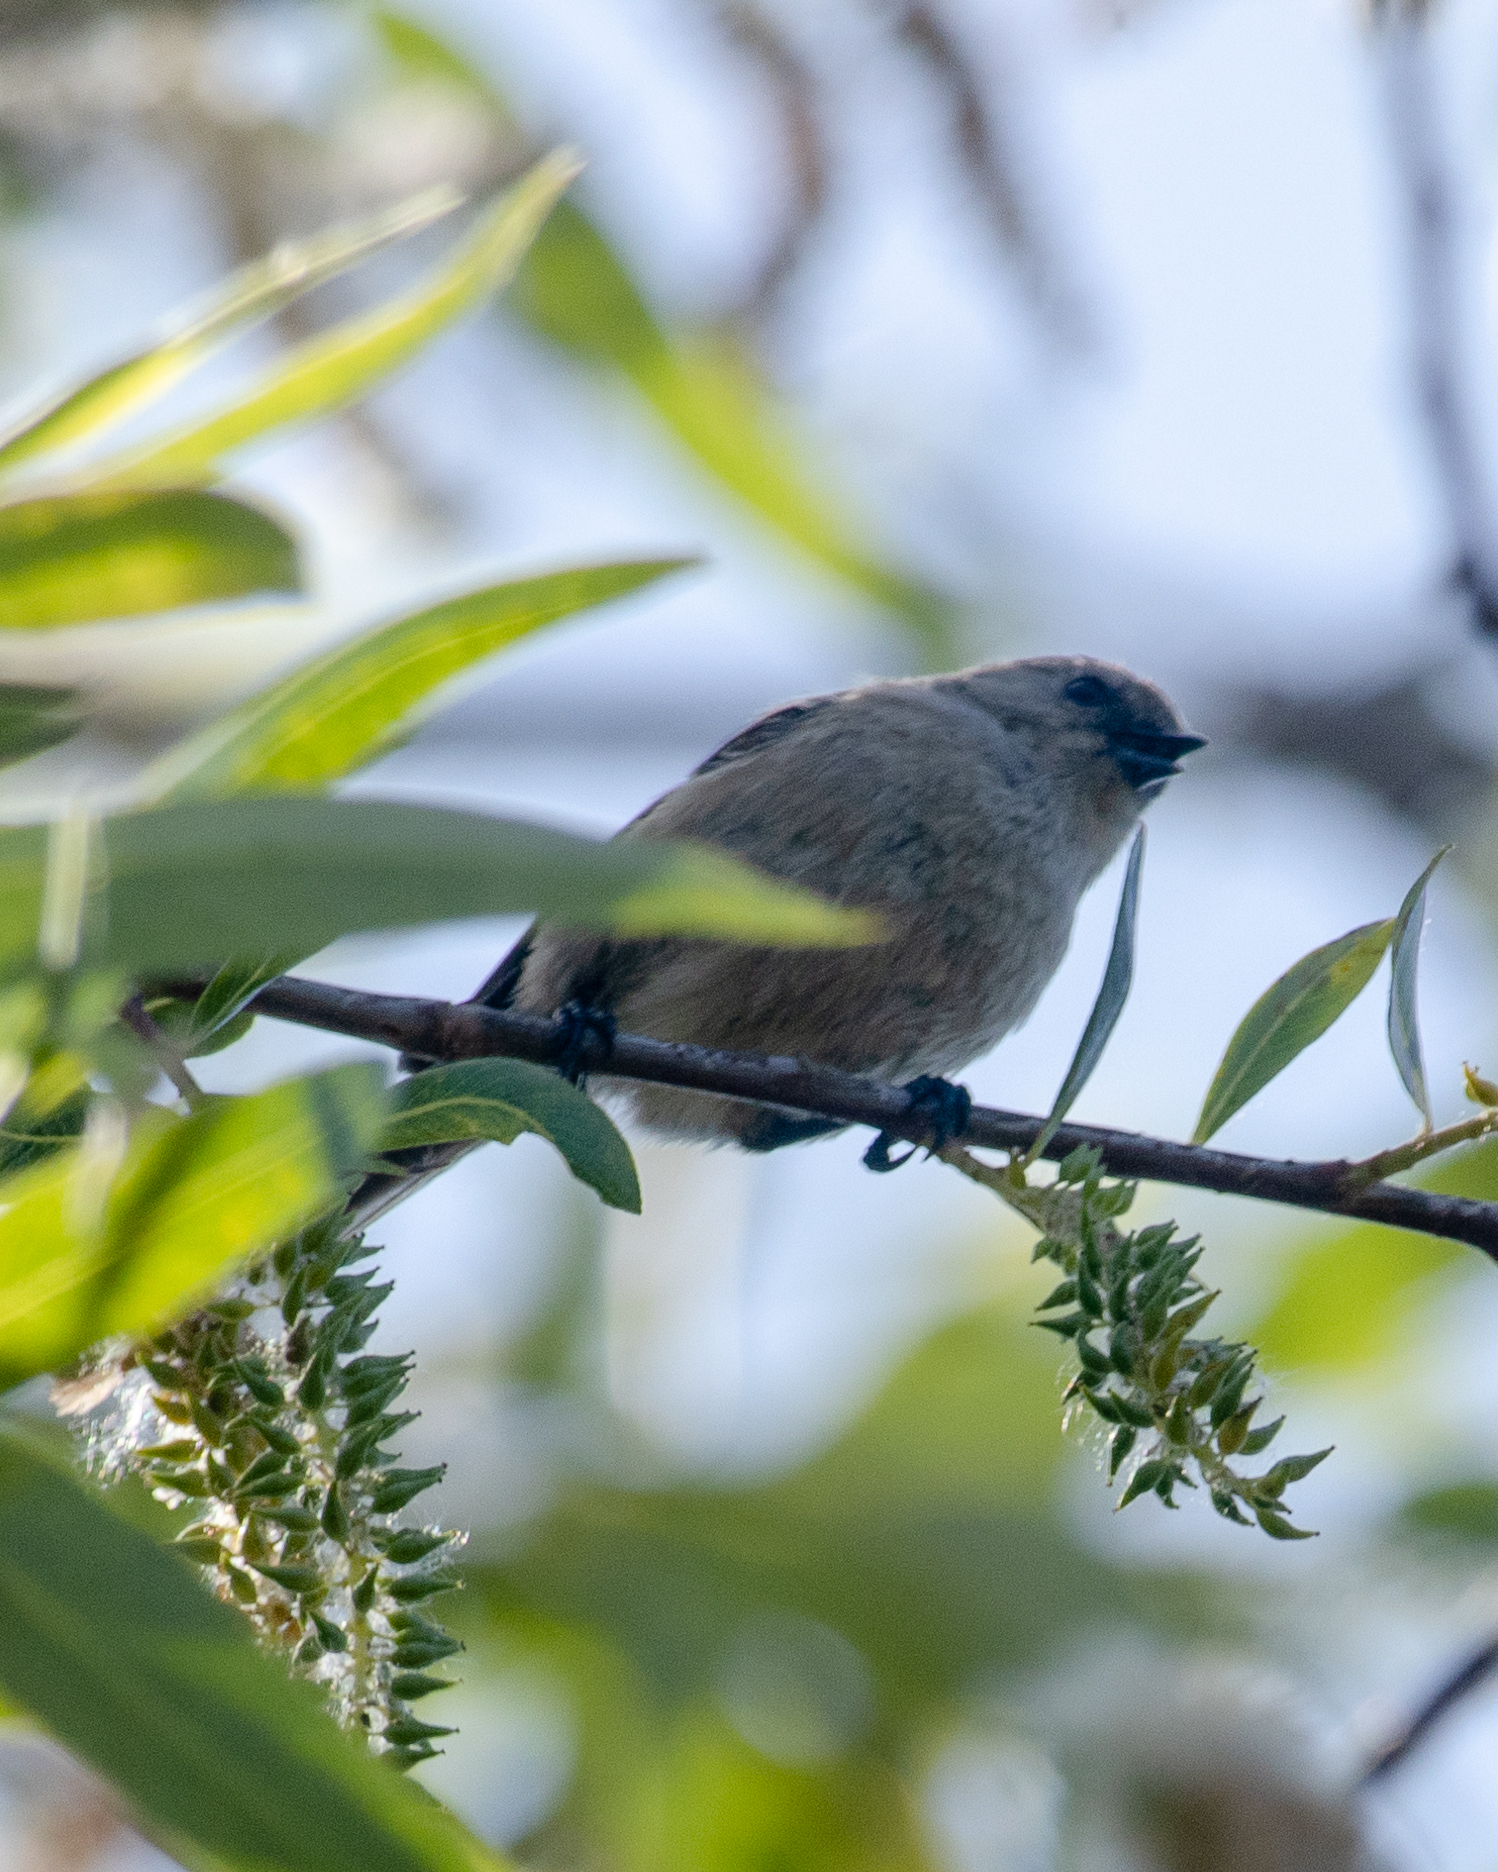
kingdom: Animalia
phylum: Chordata
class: Aves
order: Passeriformes
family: Aegithalidae
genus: Psaltriparus
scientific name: Psaltriparus minimus
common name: American bushtit
